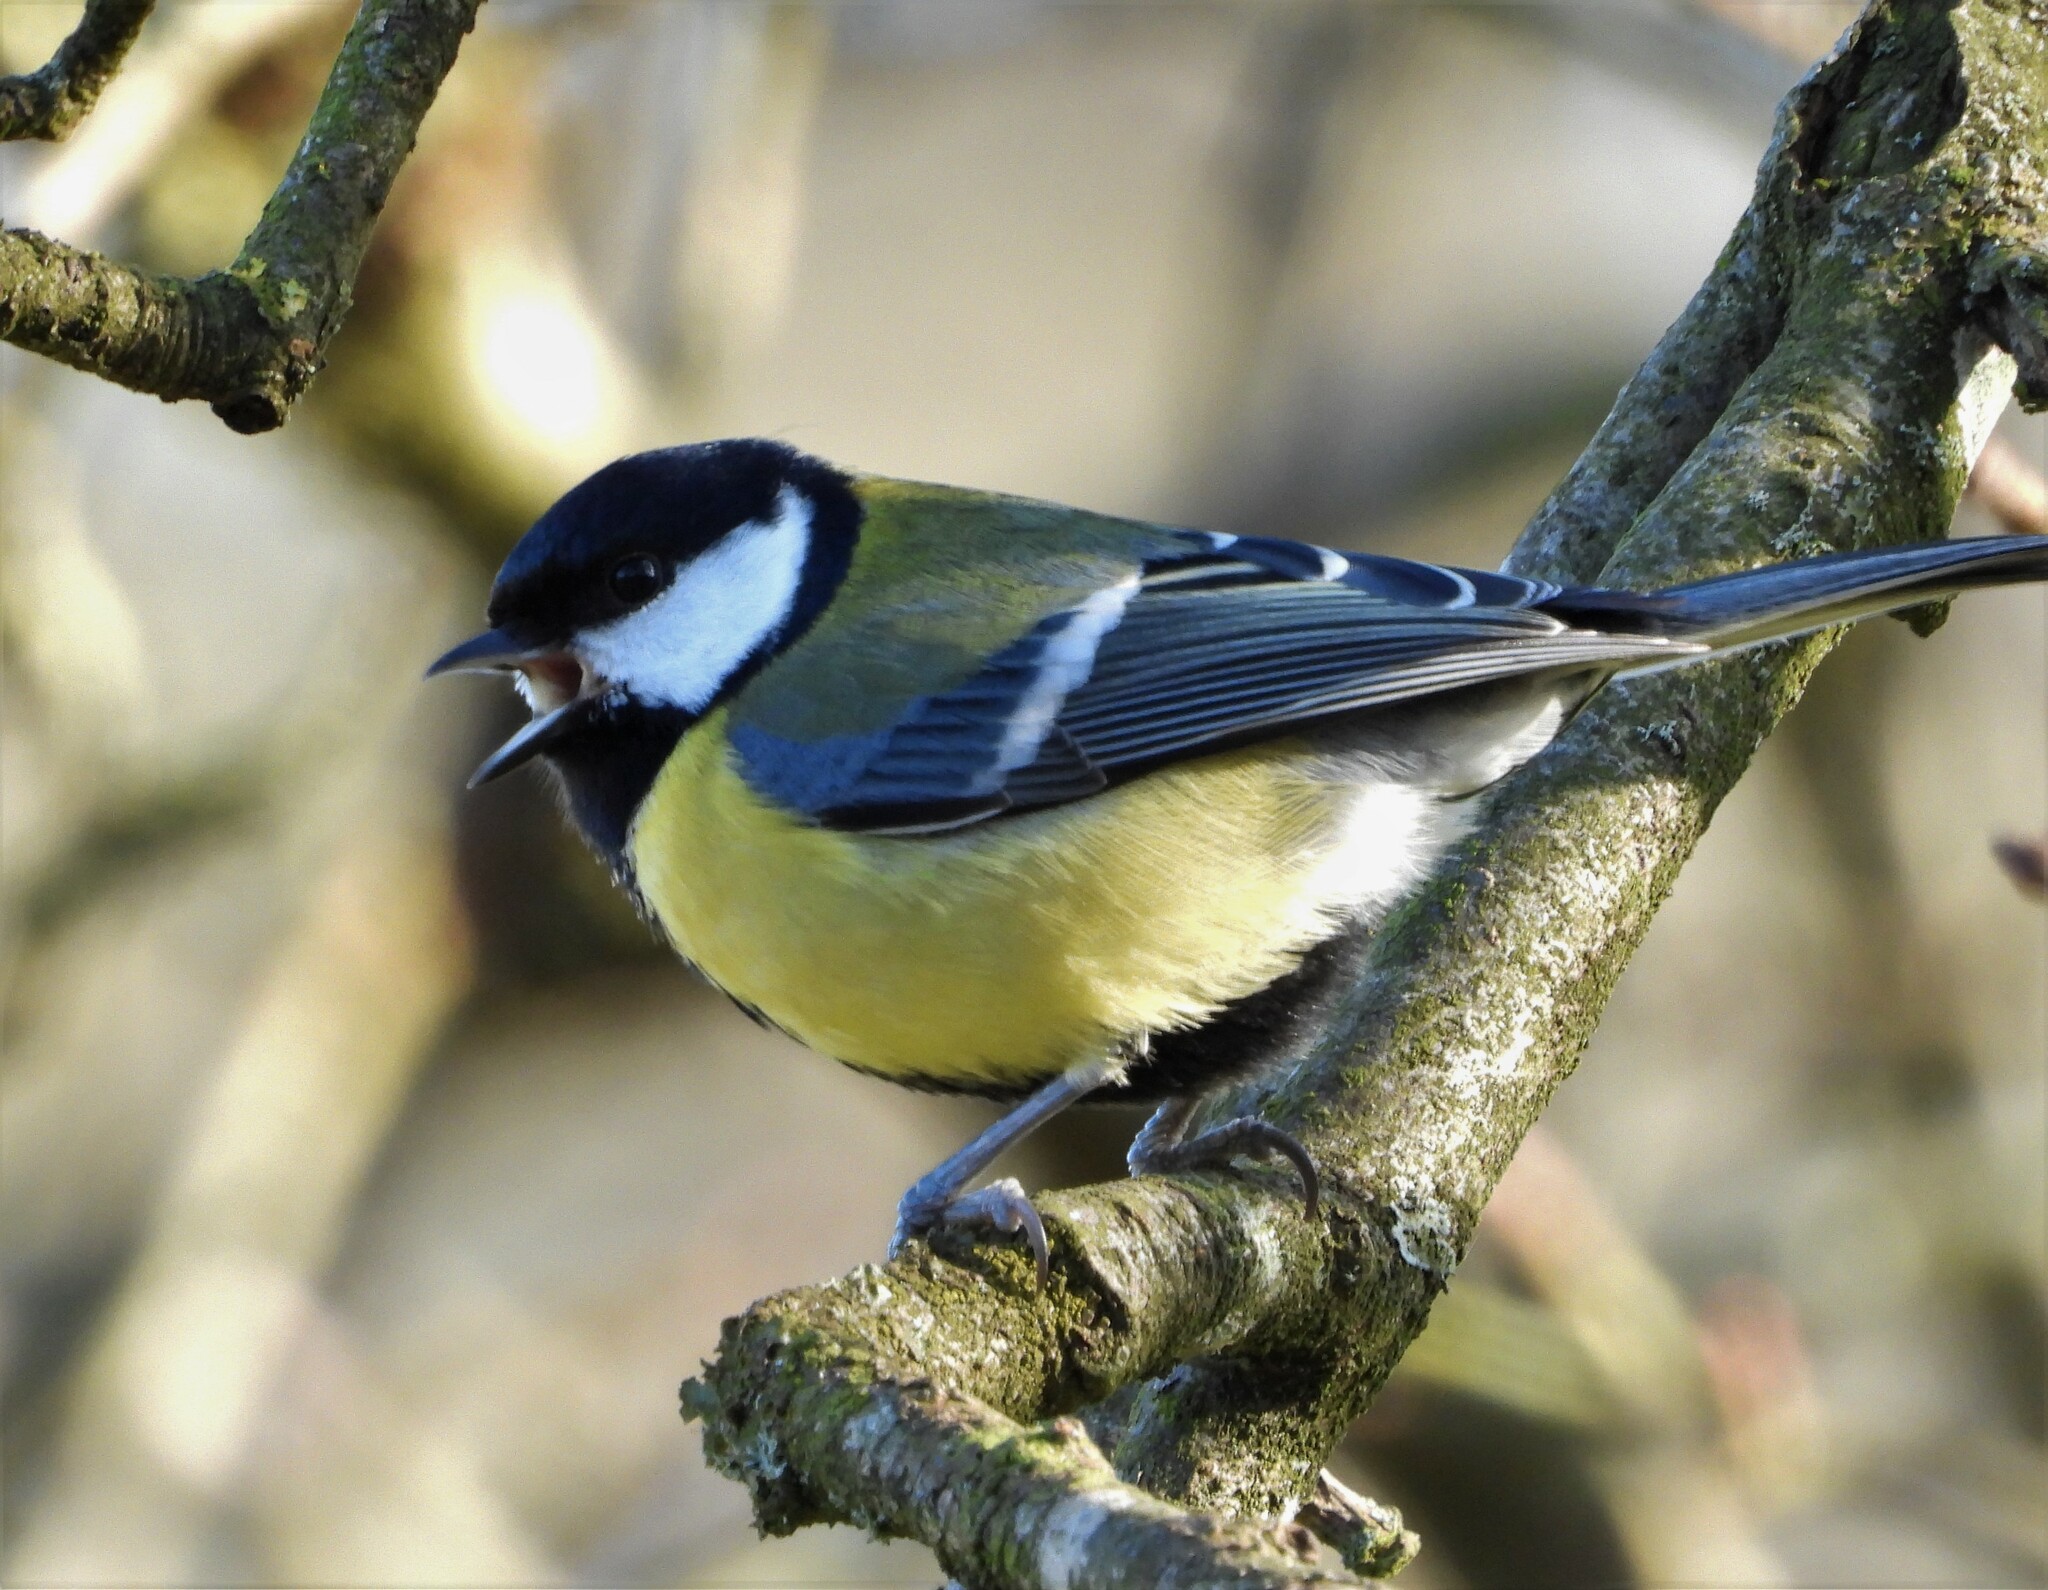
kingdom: Animalia
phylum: Chordata
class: Aves
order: Passeriformes
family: Paridae
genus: Parus
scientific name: Parus major
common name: Great tit
